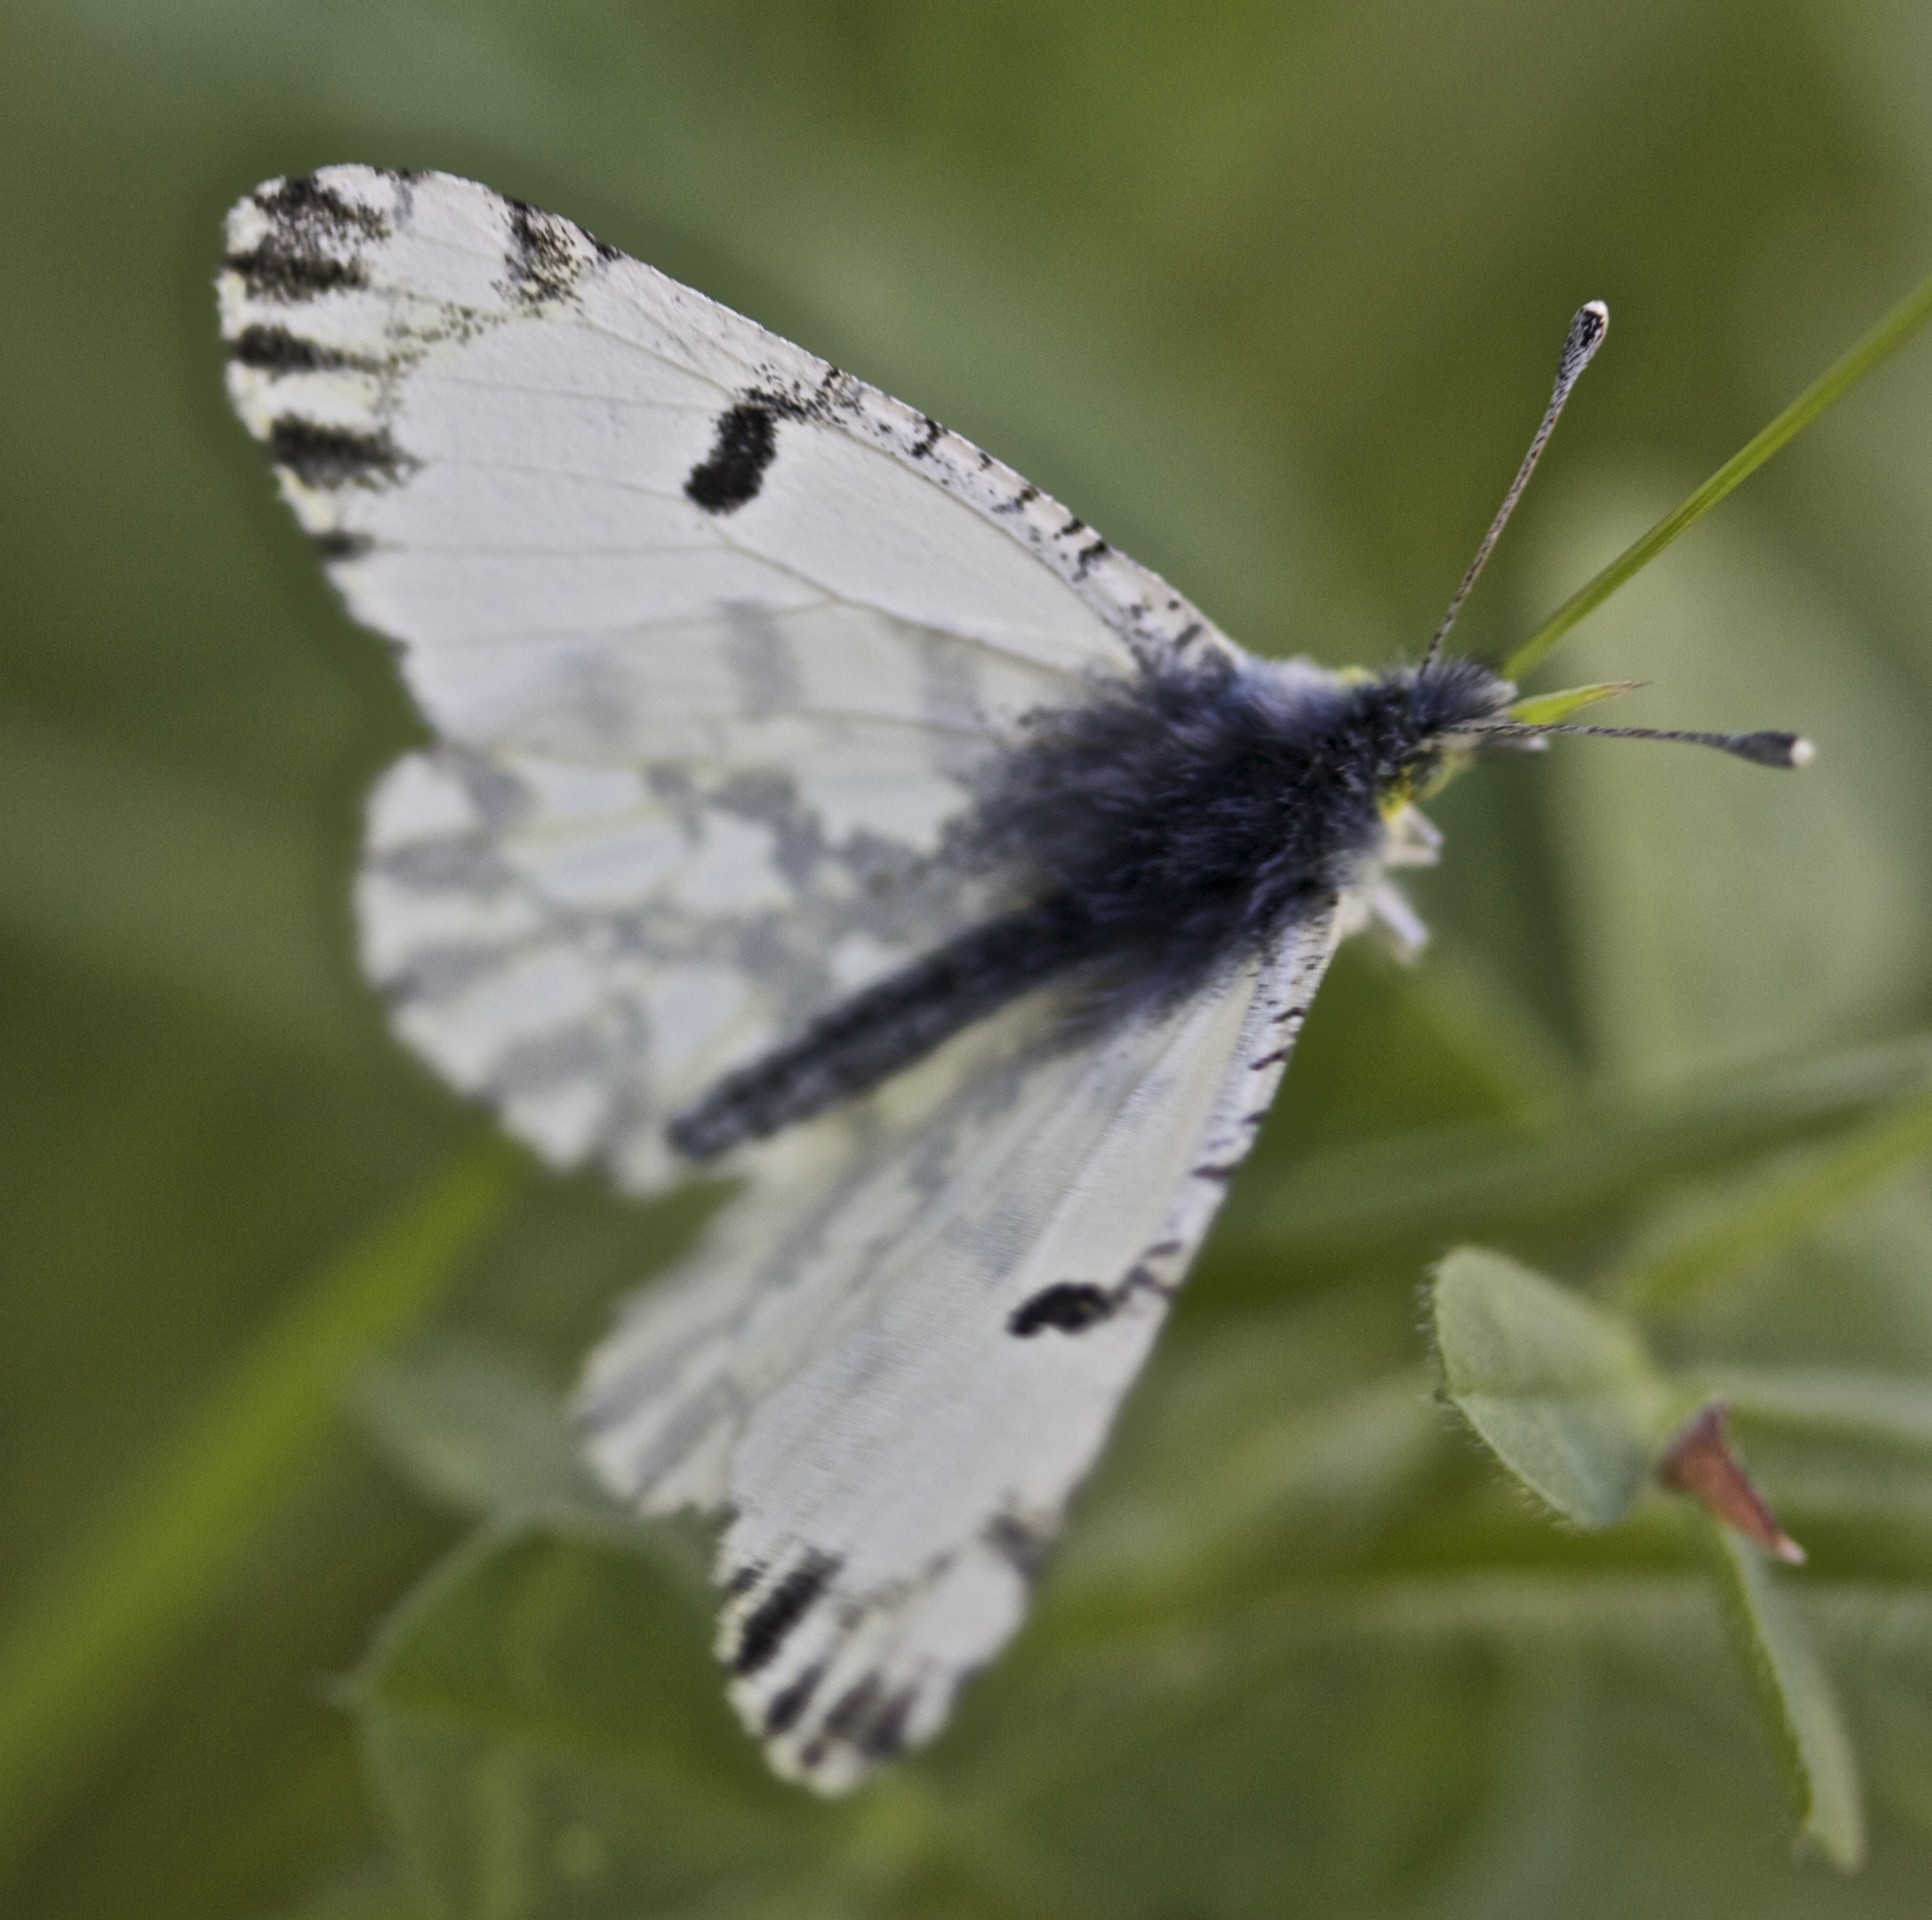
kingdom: Animalia
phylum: Arthropoda
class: Insecta
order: Lepidoptera
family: Pieridae
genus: Euchloe
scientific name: Euchloe hyantis
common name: California marble
